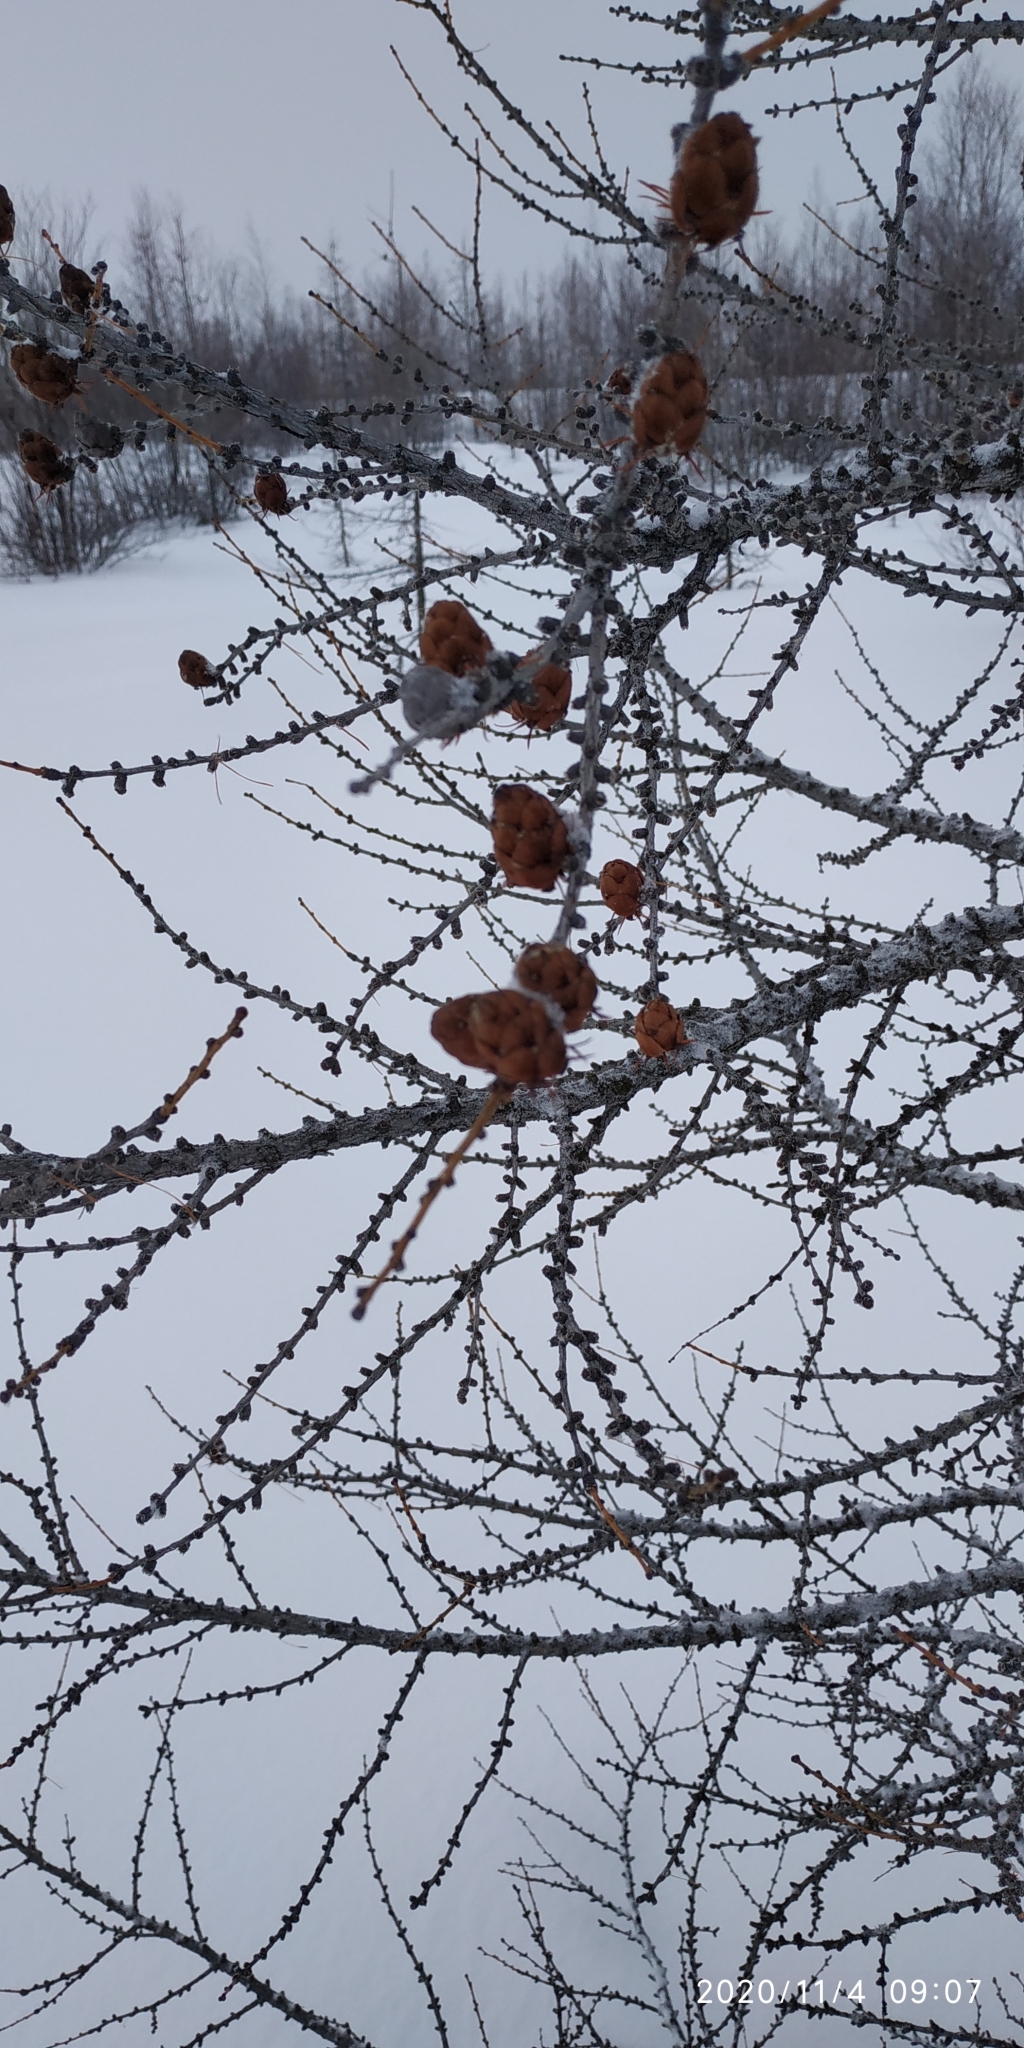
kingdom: Plantae
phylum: Tracheophyta
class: Pinopsida
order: Pinales
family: Pinaceae
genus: Larix
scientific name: Larix sibirica
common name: Siberian larch
